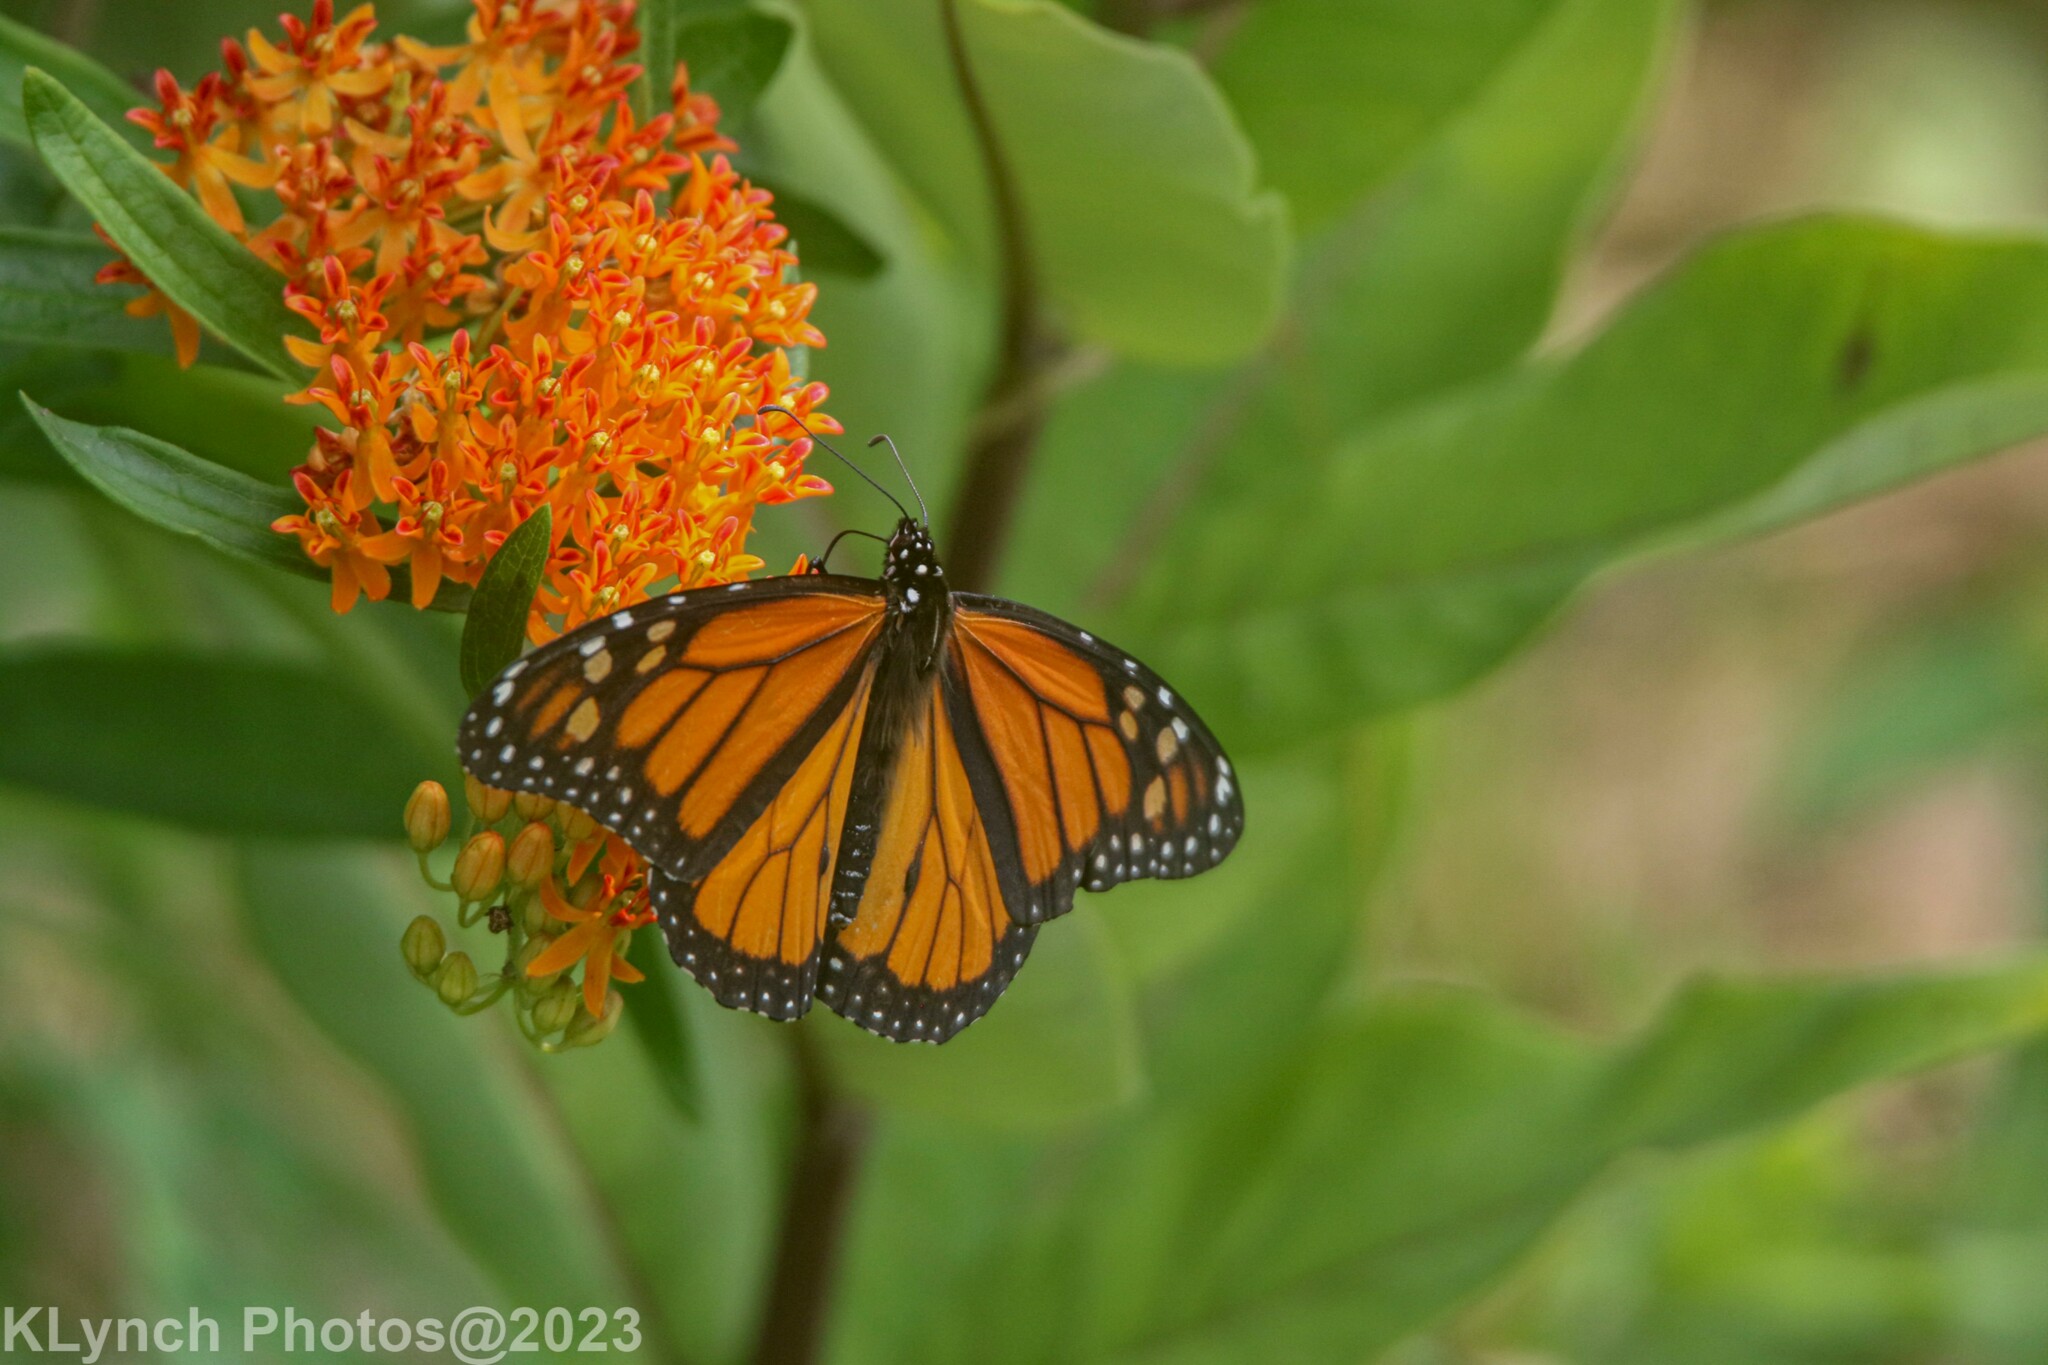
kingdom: Animalia
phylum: Arthropoda
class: Insecta
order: Lepidoptera
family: Nymphalidae
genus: Danaus
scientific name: Danaus plexippus
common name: Monarch
